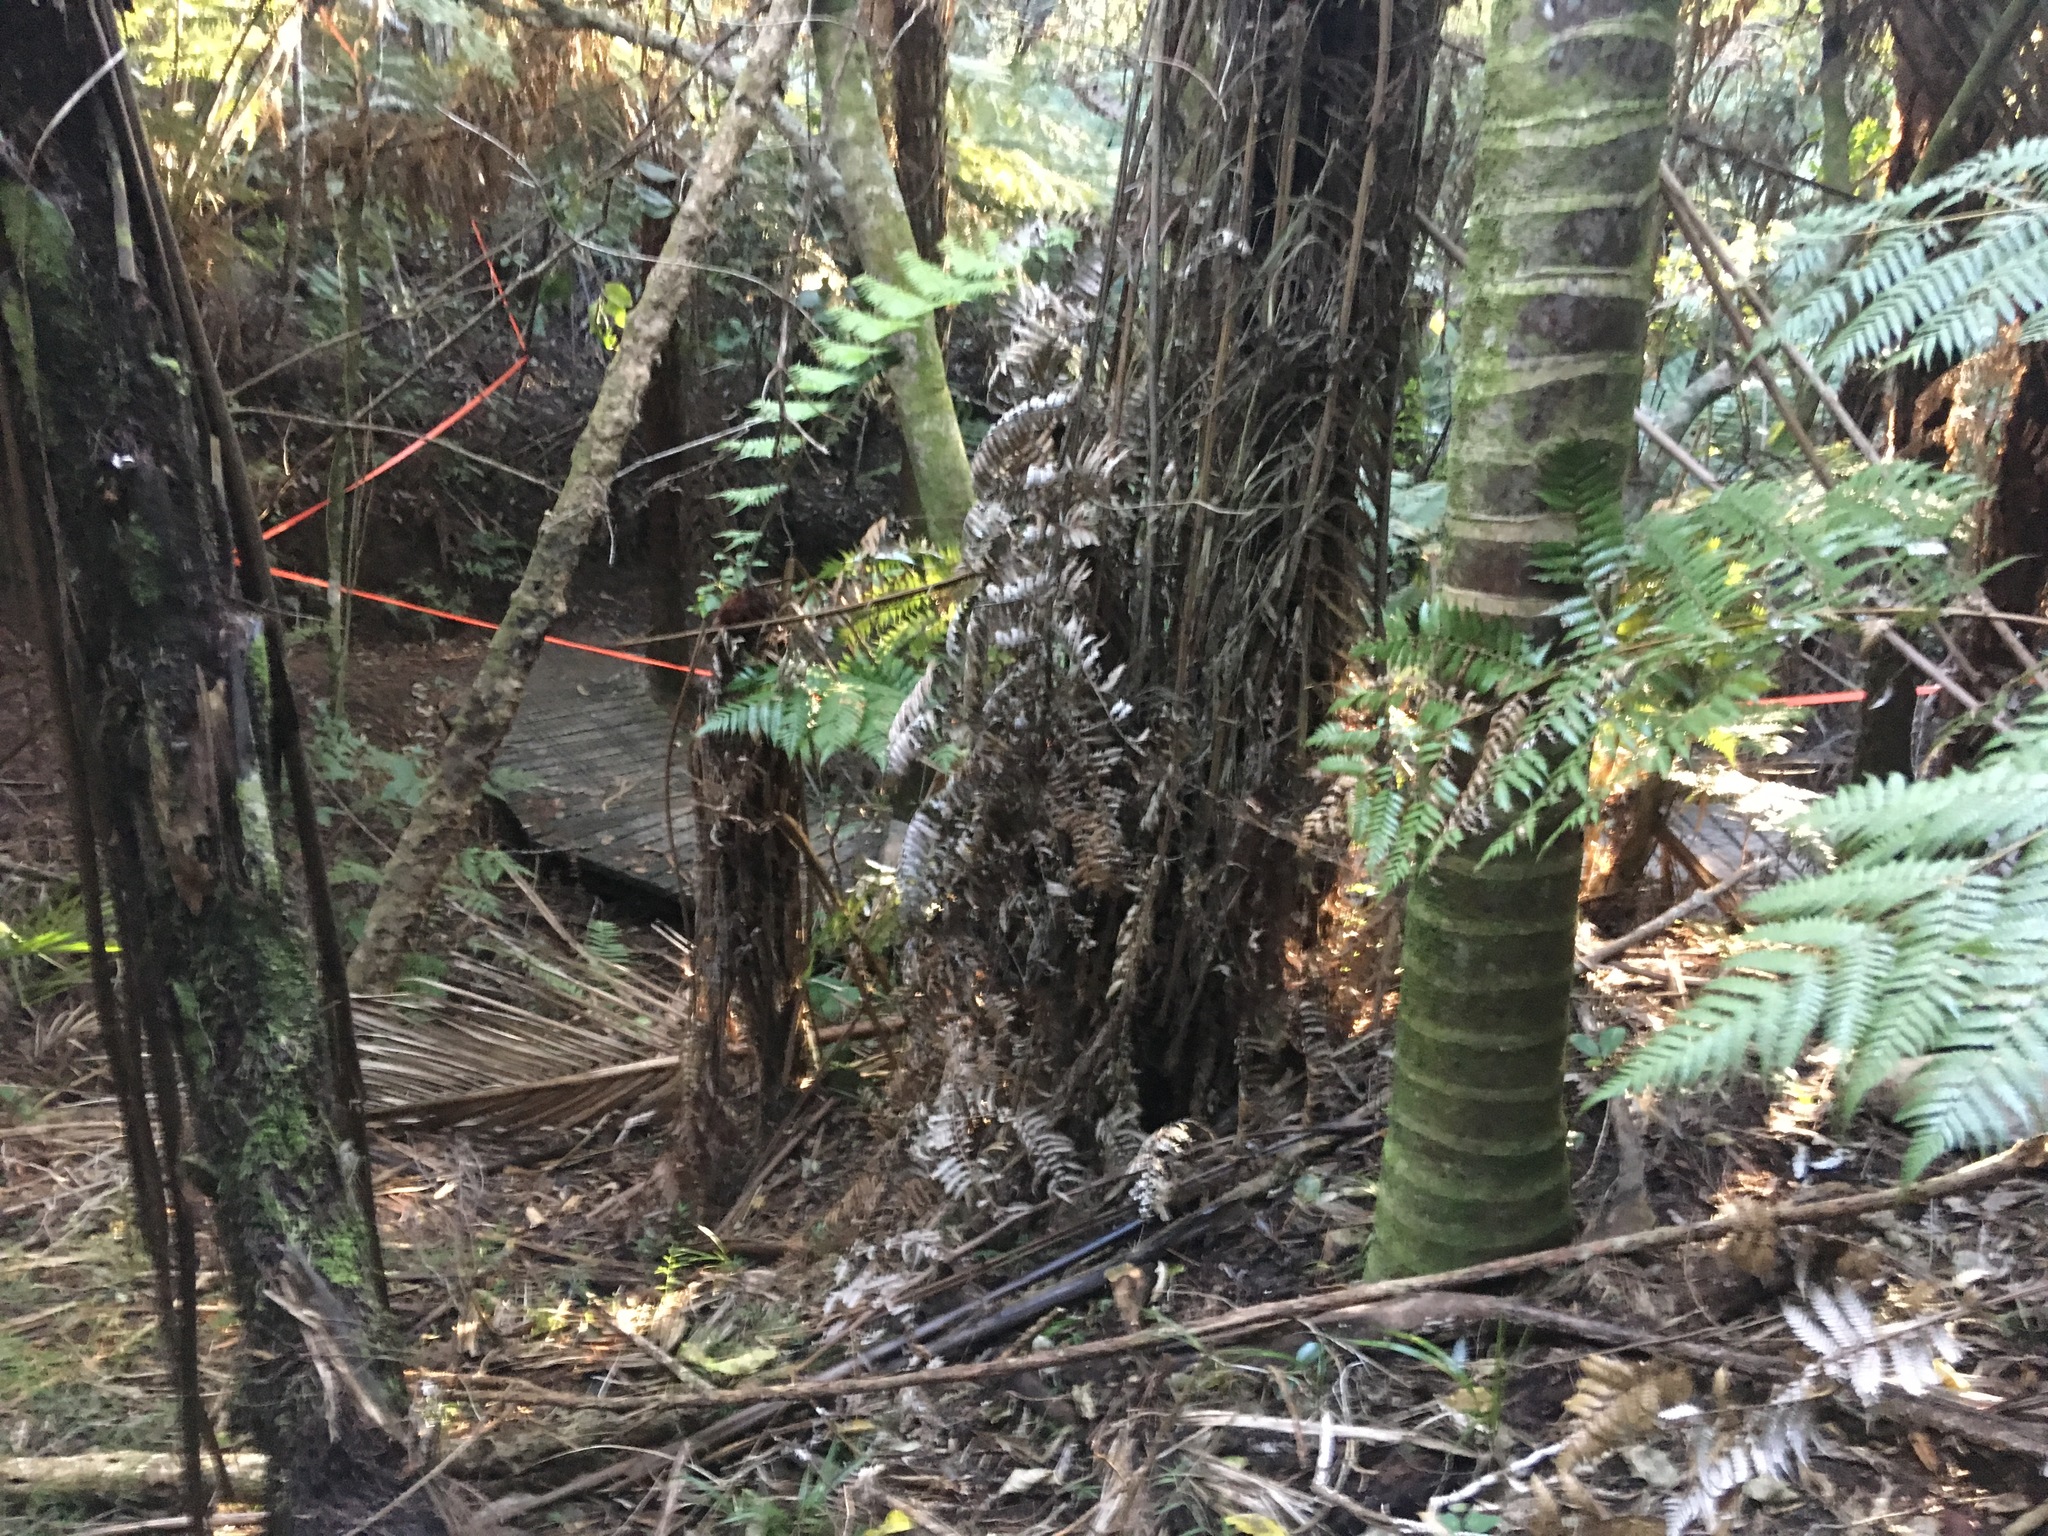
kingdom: Plantae
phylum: Tracheophyta
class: Polypodiopsida
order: Cyatheales
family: Cyatheaceae
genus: Sphaeropteris
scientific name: Sphaeropteris medullaris
